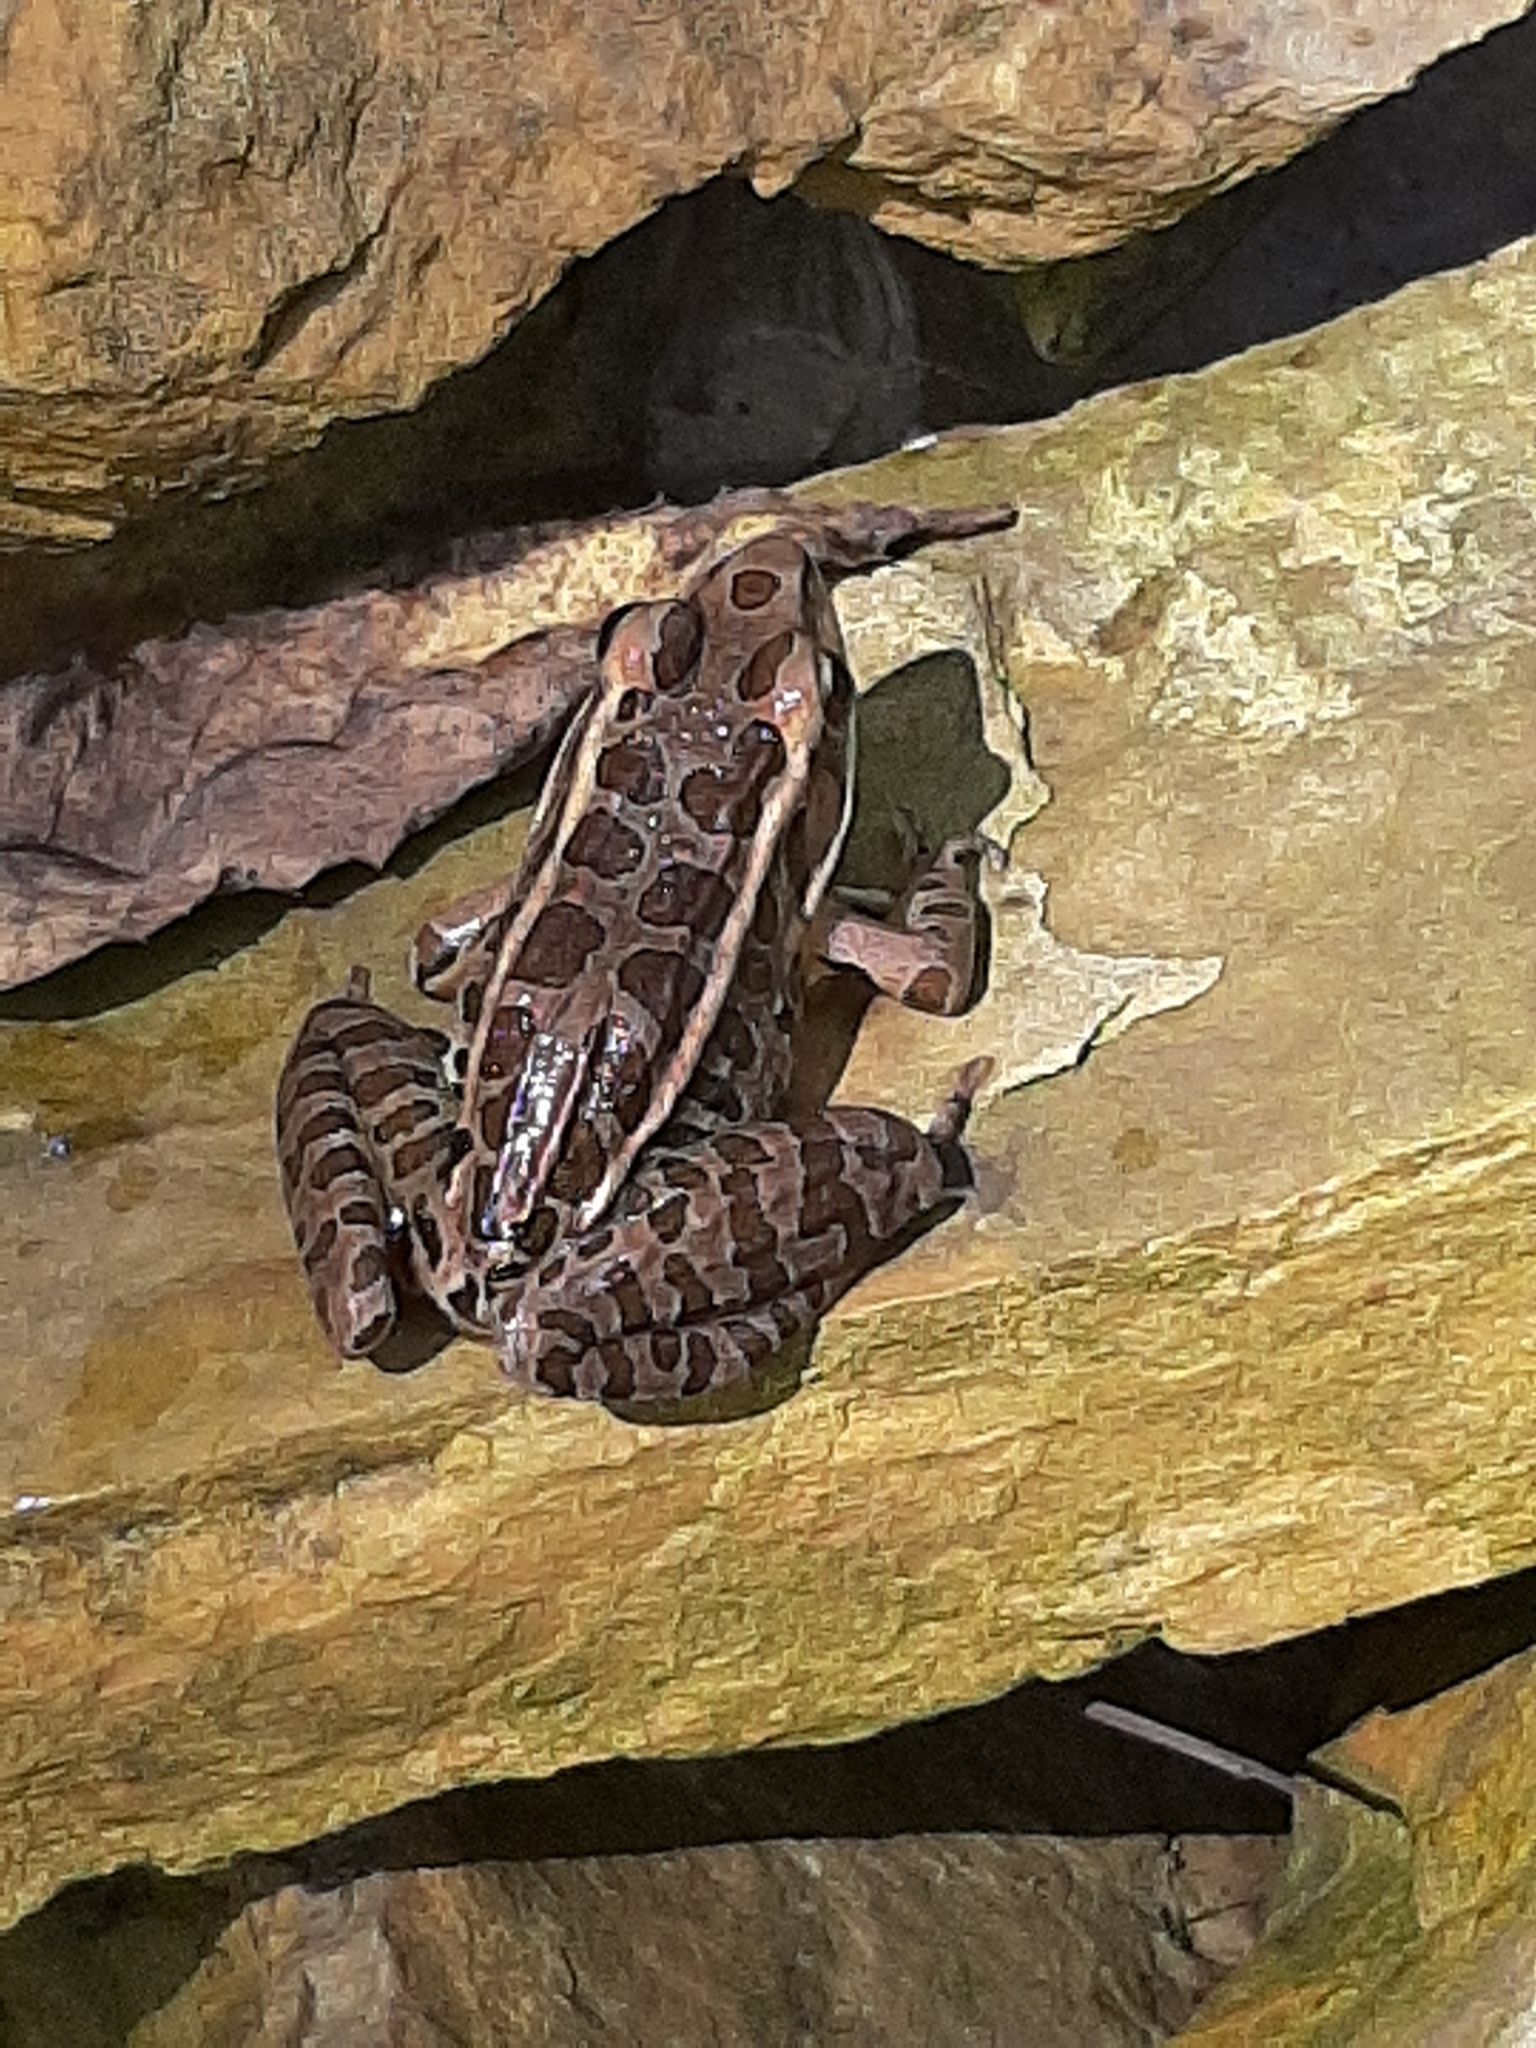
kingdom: Animalia
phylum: Chordata
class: Amphibia
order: Anura
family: Ranidae
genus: Lithobates
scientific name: Lithobates palustris
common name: Pickerel frog
